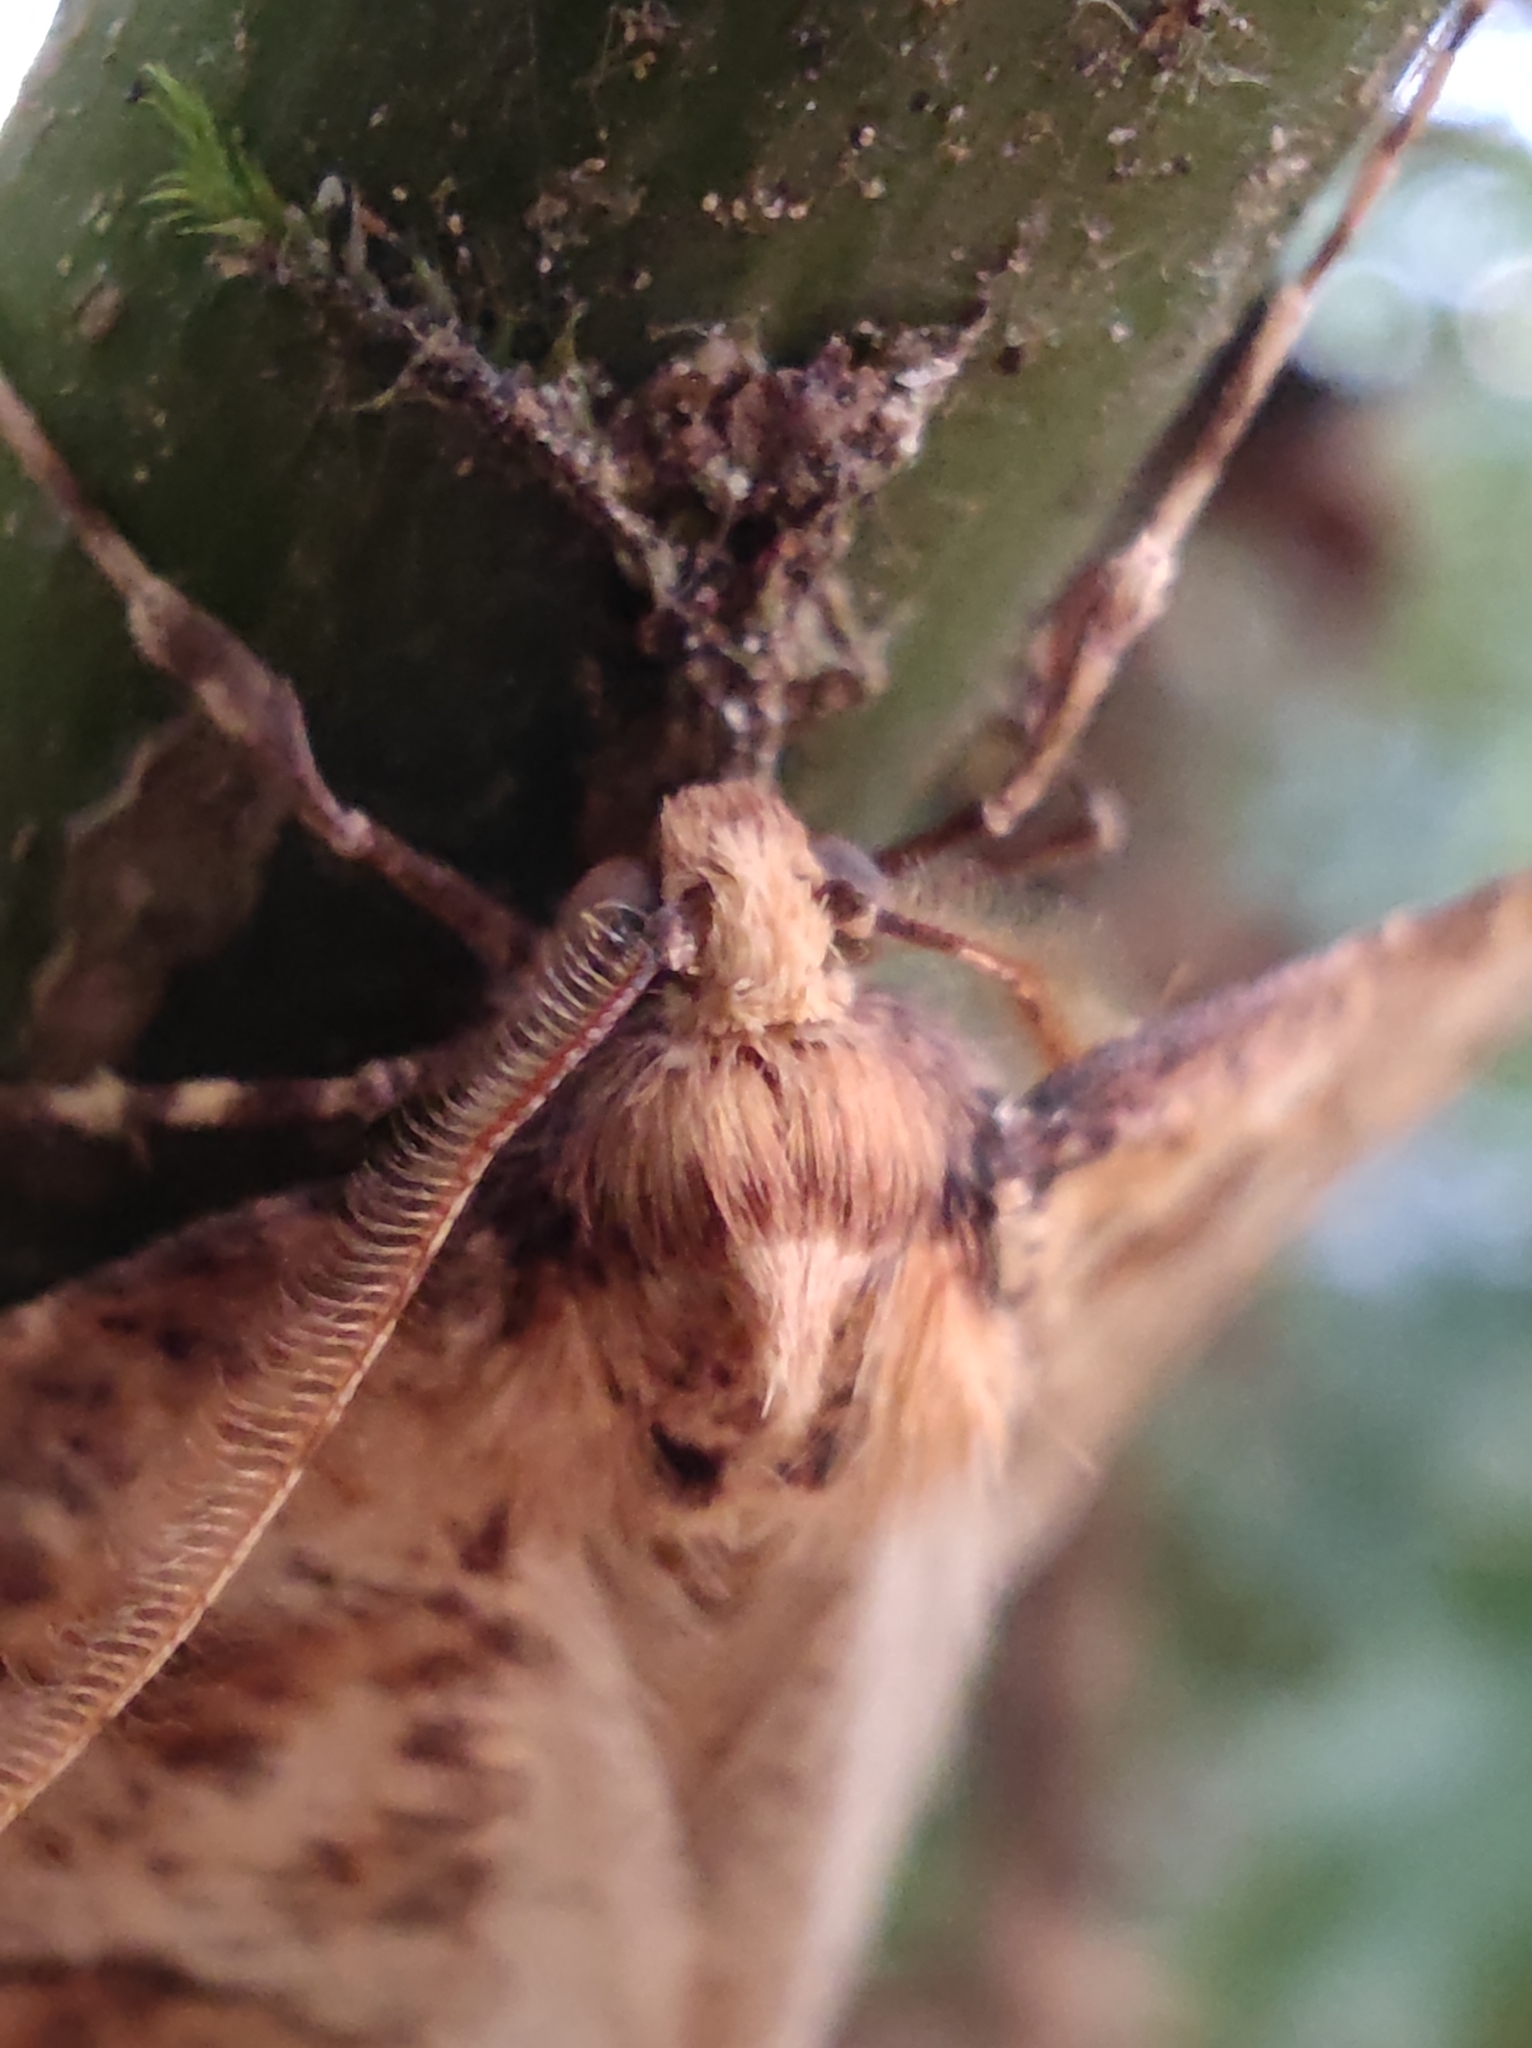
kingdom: Animalia
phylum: Arthropoda
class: Insecta
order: Lepidoptera
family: Geometridae
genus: Erannis
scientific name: Erannis defoliaria
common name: Mottled umber
